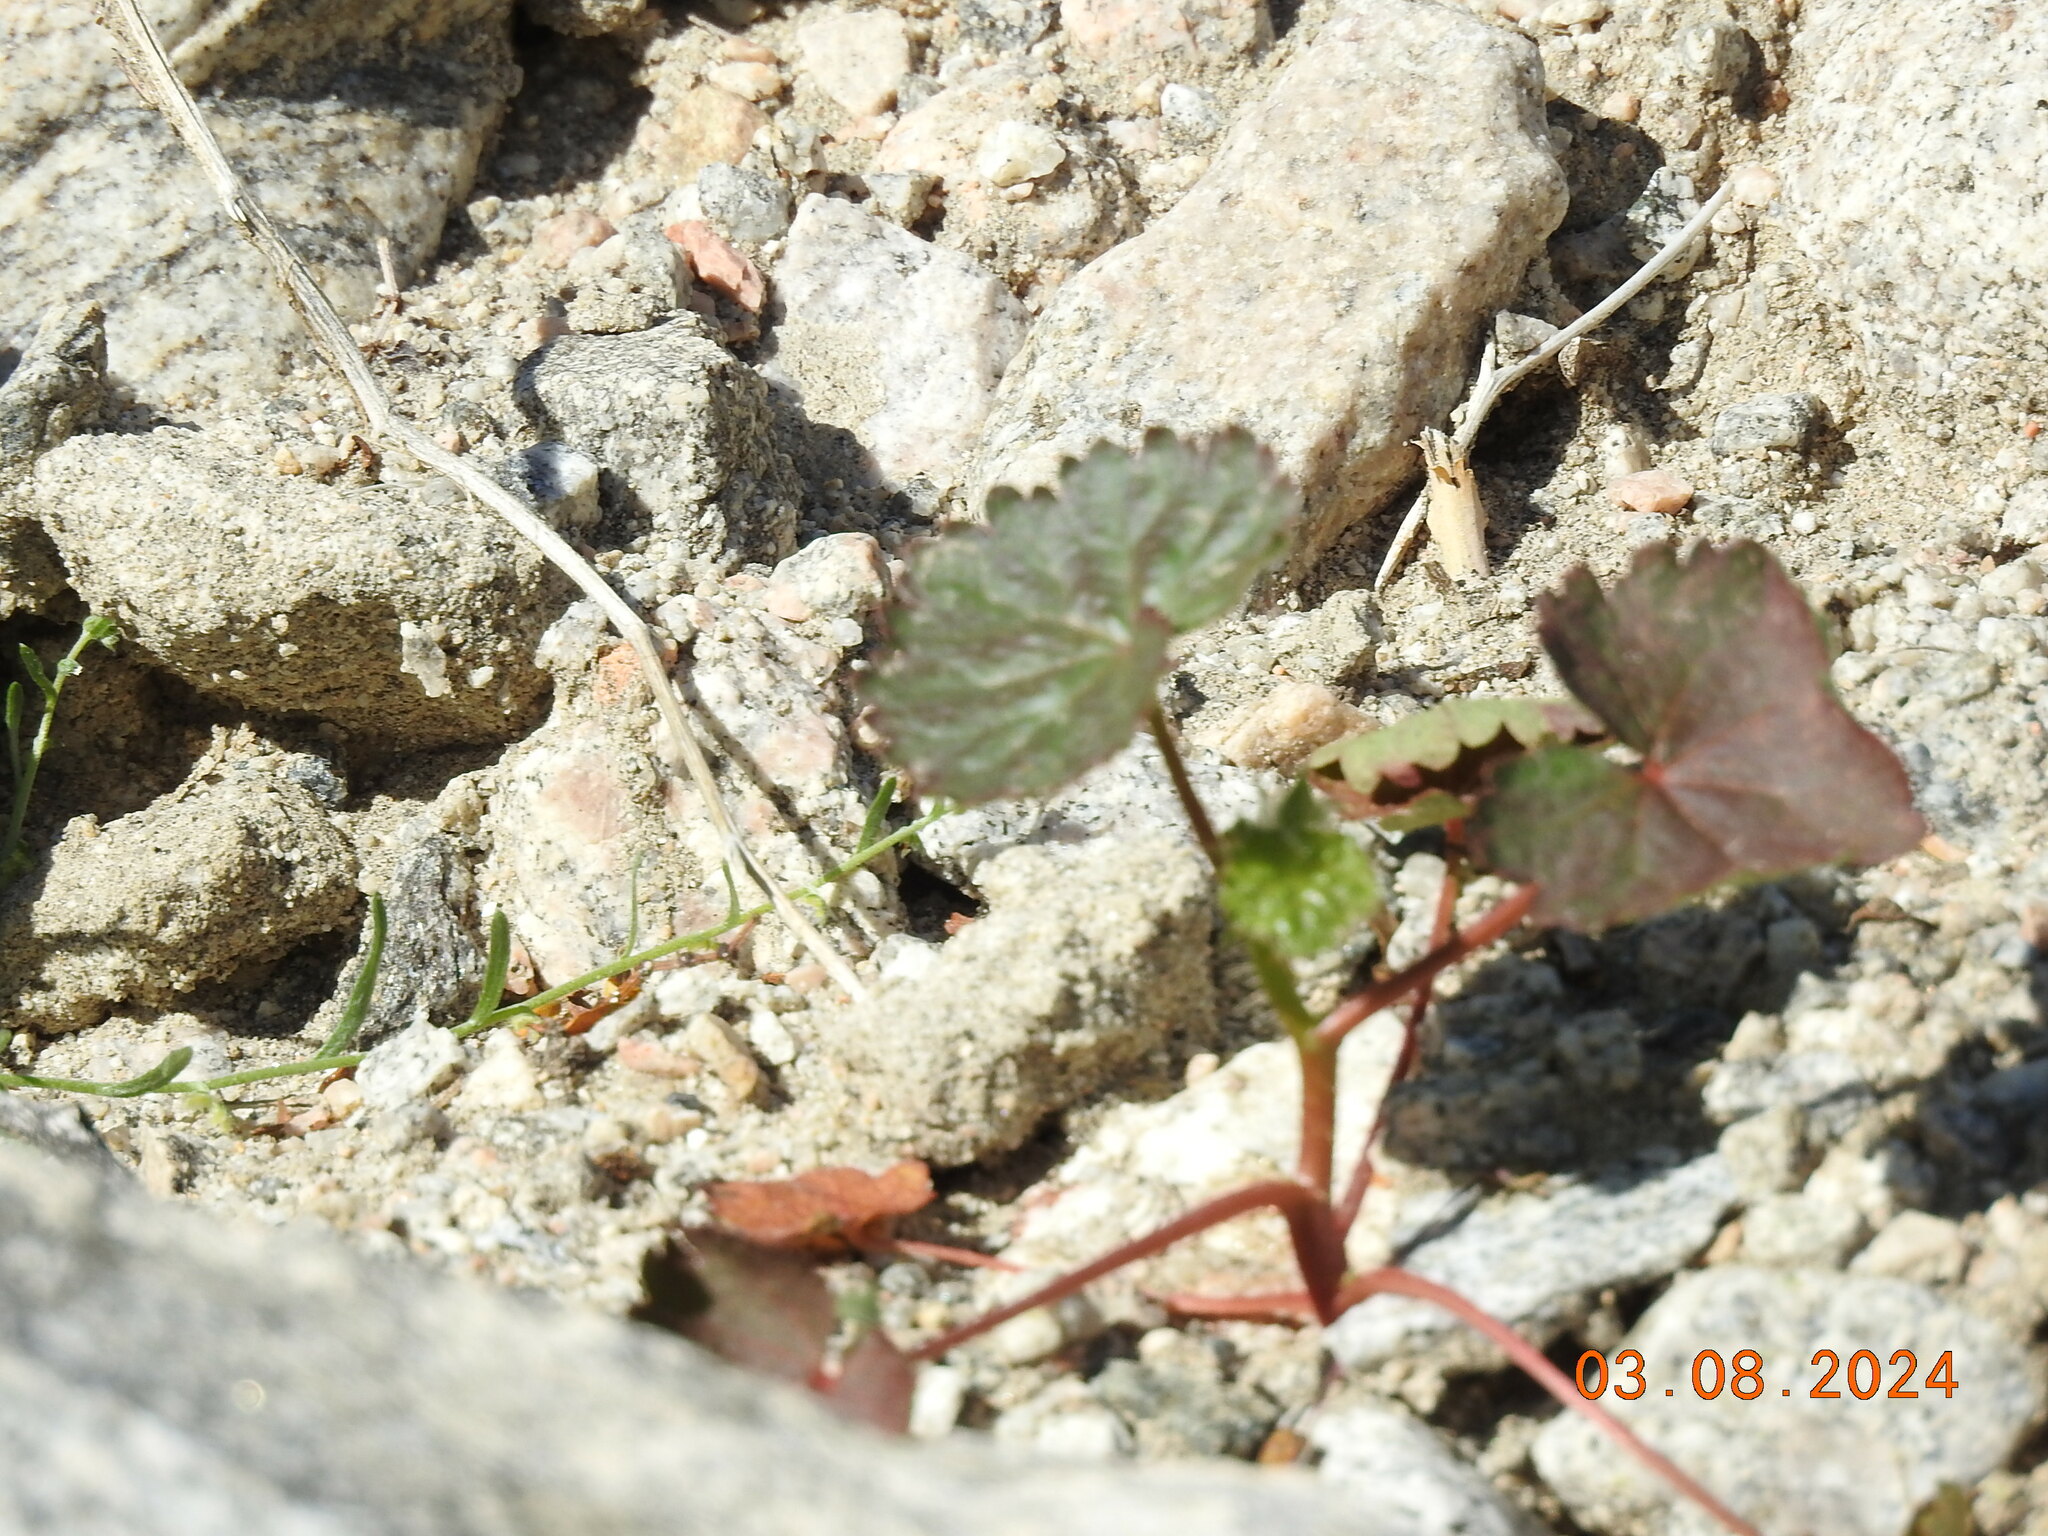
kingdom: Plantae
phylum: Tracheophyta
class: Magnoliopsida
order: Malvales
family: Malvaceae
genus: Eremalche
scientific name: Eremalche rotundifolia
